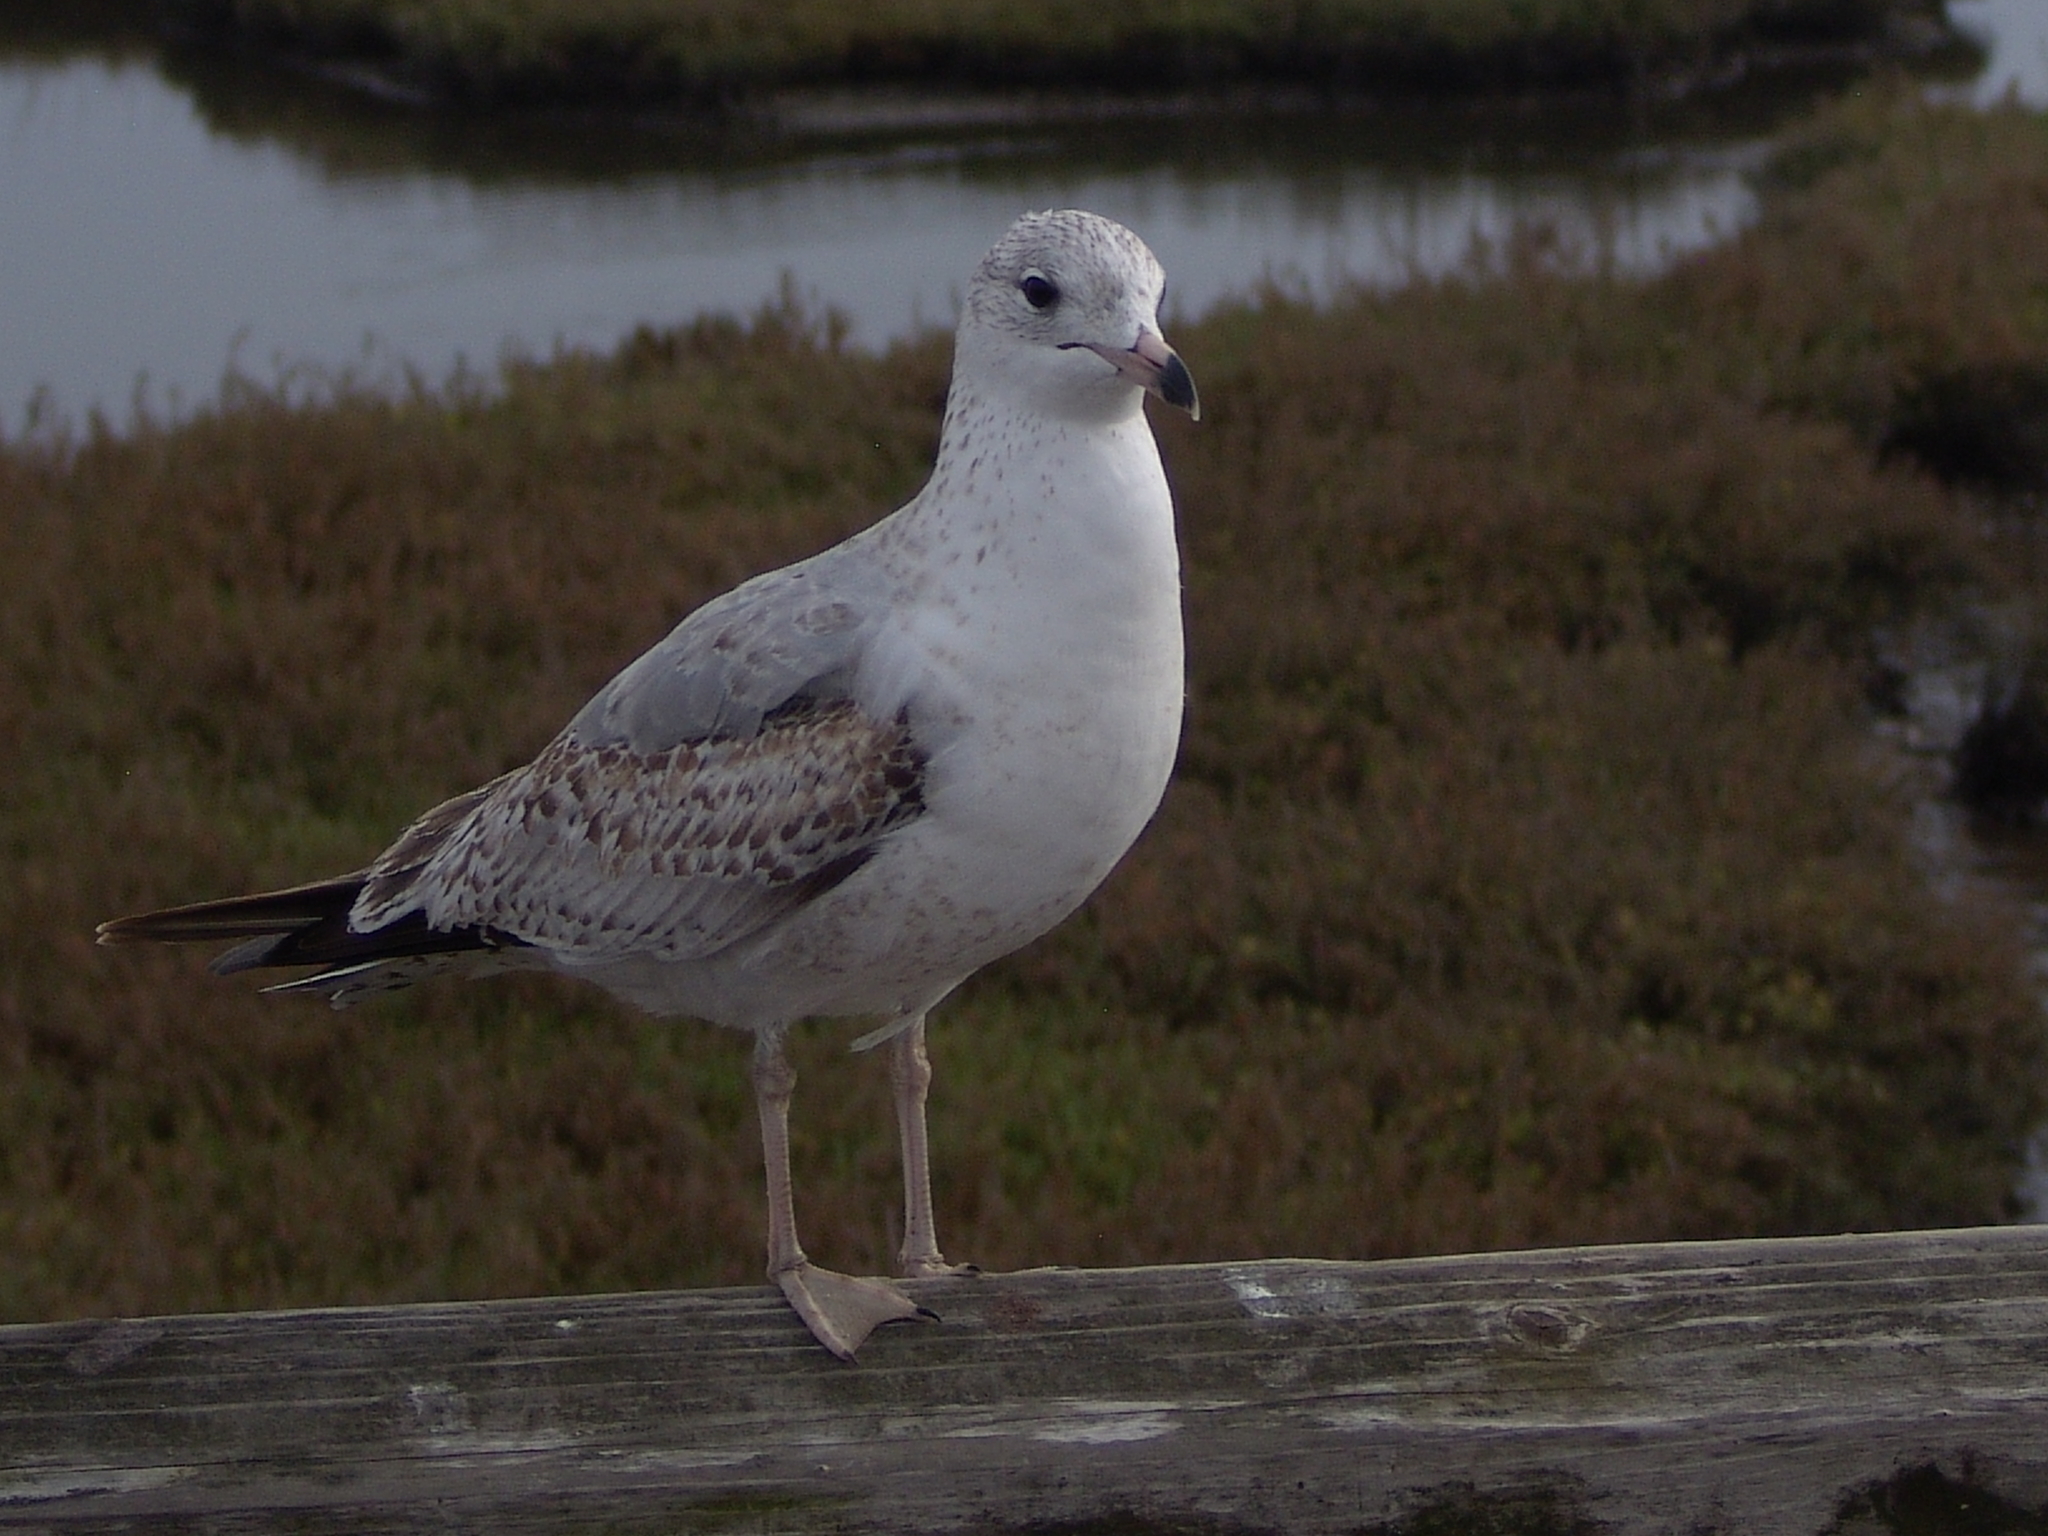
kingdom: Animalia
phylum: Chordata
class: Aves
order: Charadriiformes
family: Laridae
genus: Larus
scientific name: Larus delawarensis
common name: Ring-billed gull
